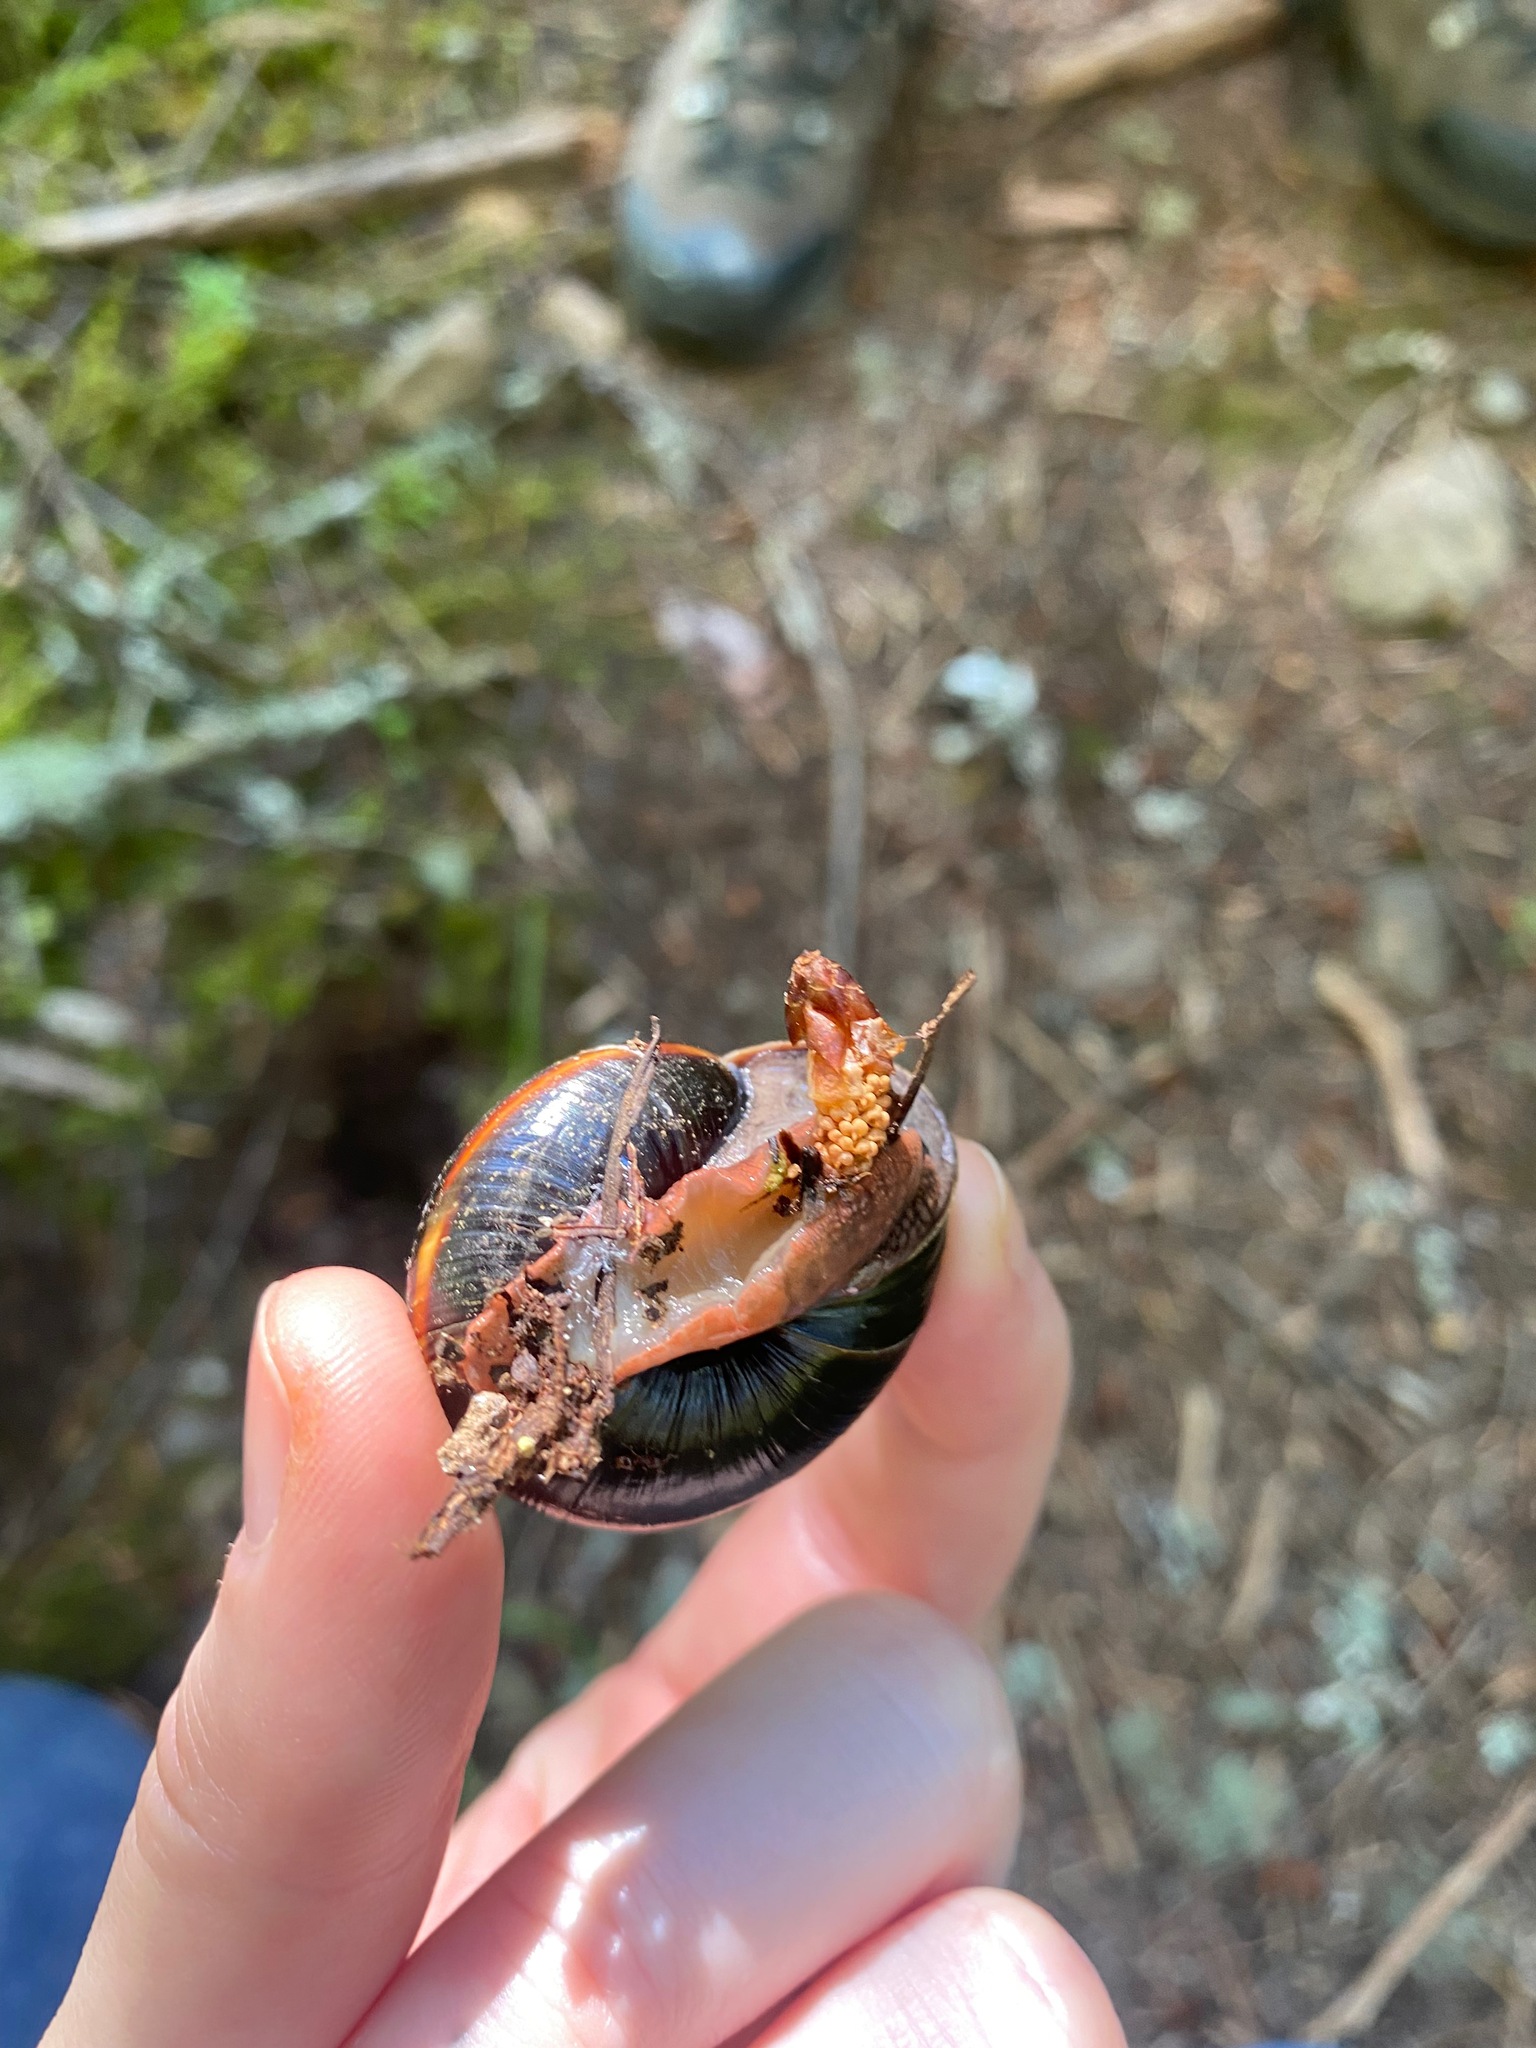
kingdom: Animalia
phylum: Mollusca
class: Gastropoda
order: Stylommatophora
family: Xanthonychidae
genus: Monadenia
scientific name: Monadenia fidelis
